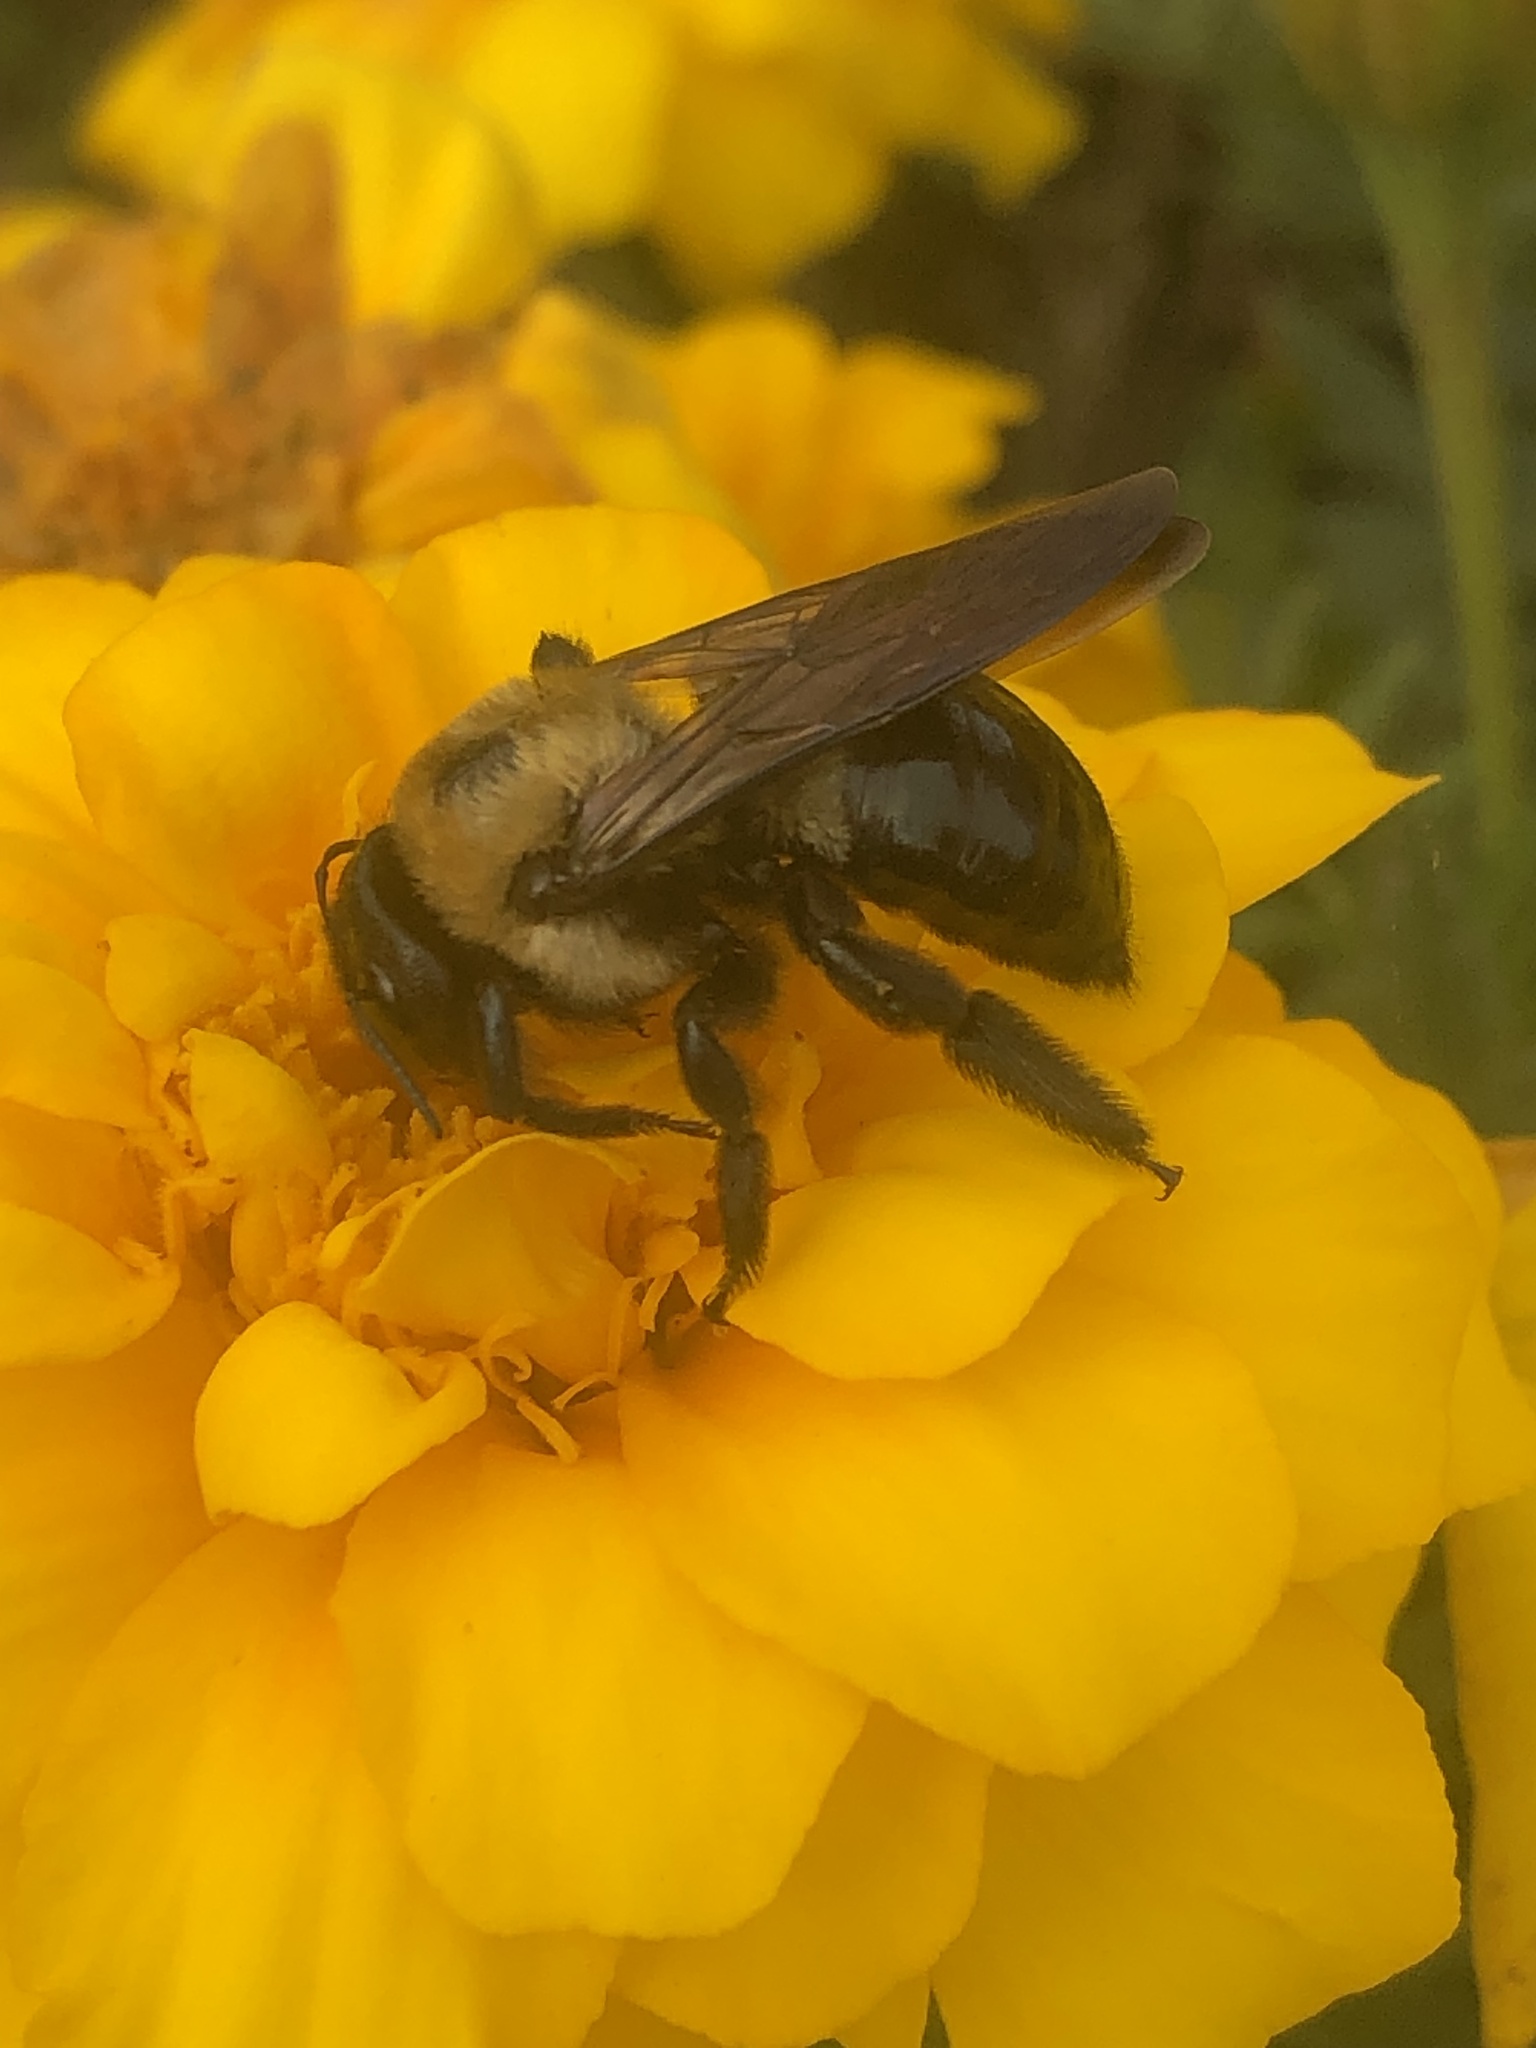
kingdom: Animalia
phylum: Arthropoda
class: Insecta
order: Hymenoptera
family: Apidae
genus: Xylocopa
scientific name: Xylocopa virginica
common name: Carpenter bee
